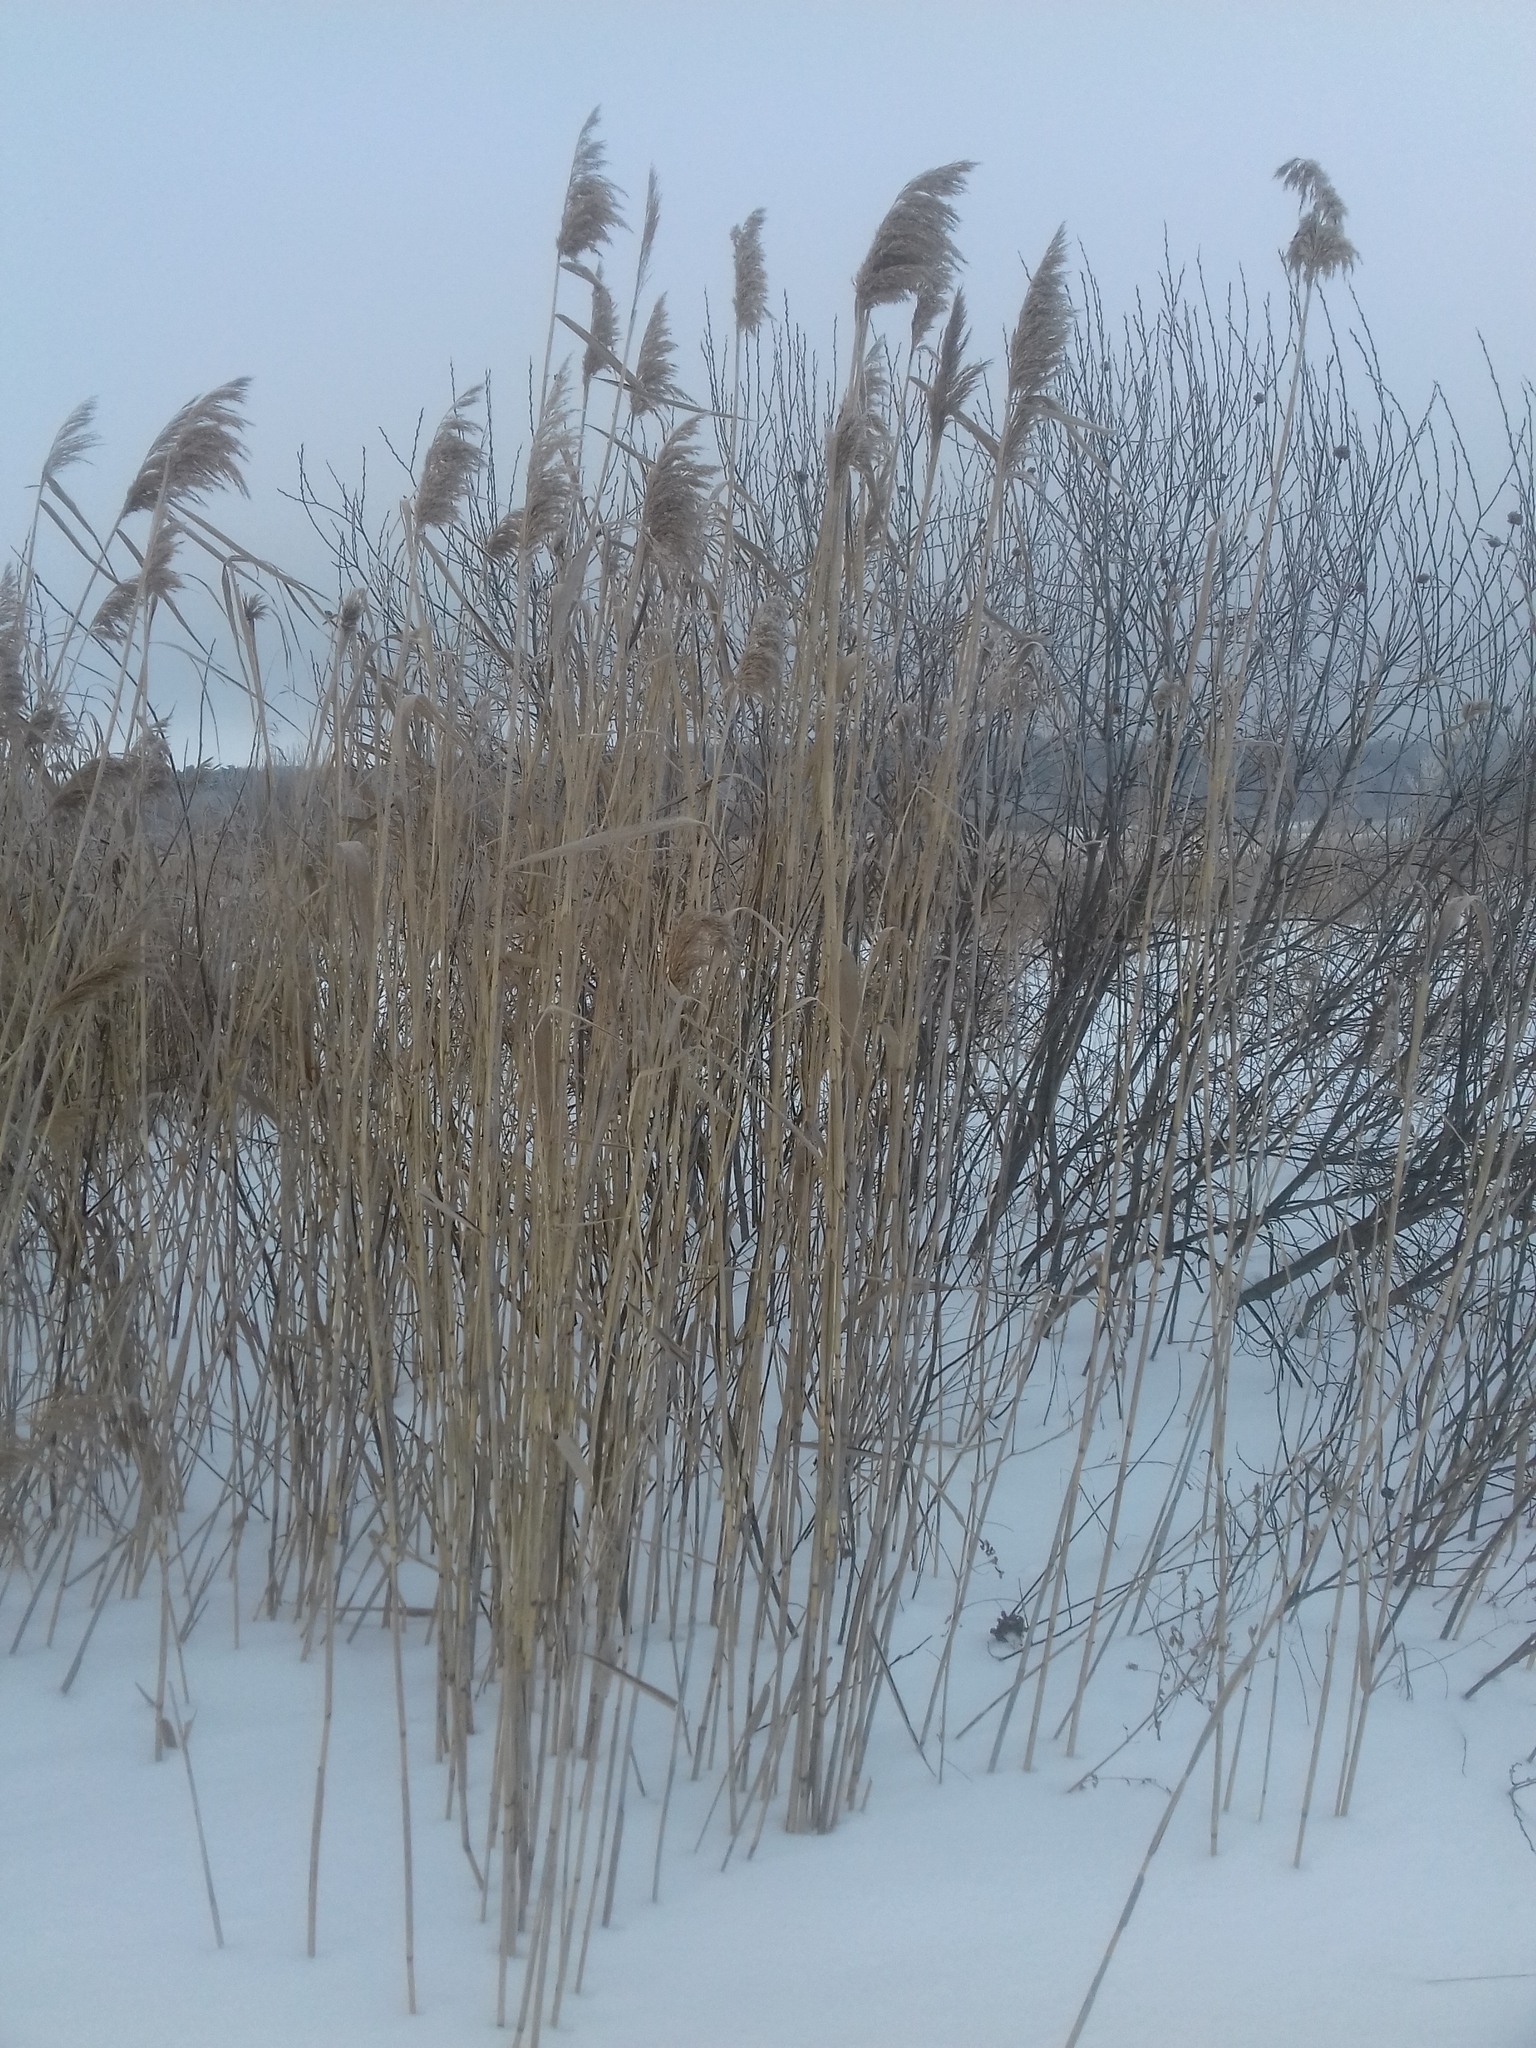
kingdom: Plantae
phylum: Tracheophyta
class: Liliopsida
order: Poales
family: Poaceae
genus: Phragmites
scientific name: Phragmites australis
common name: Common reed
